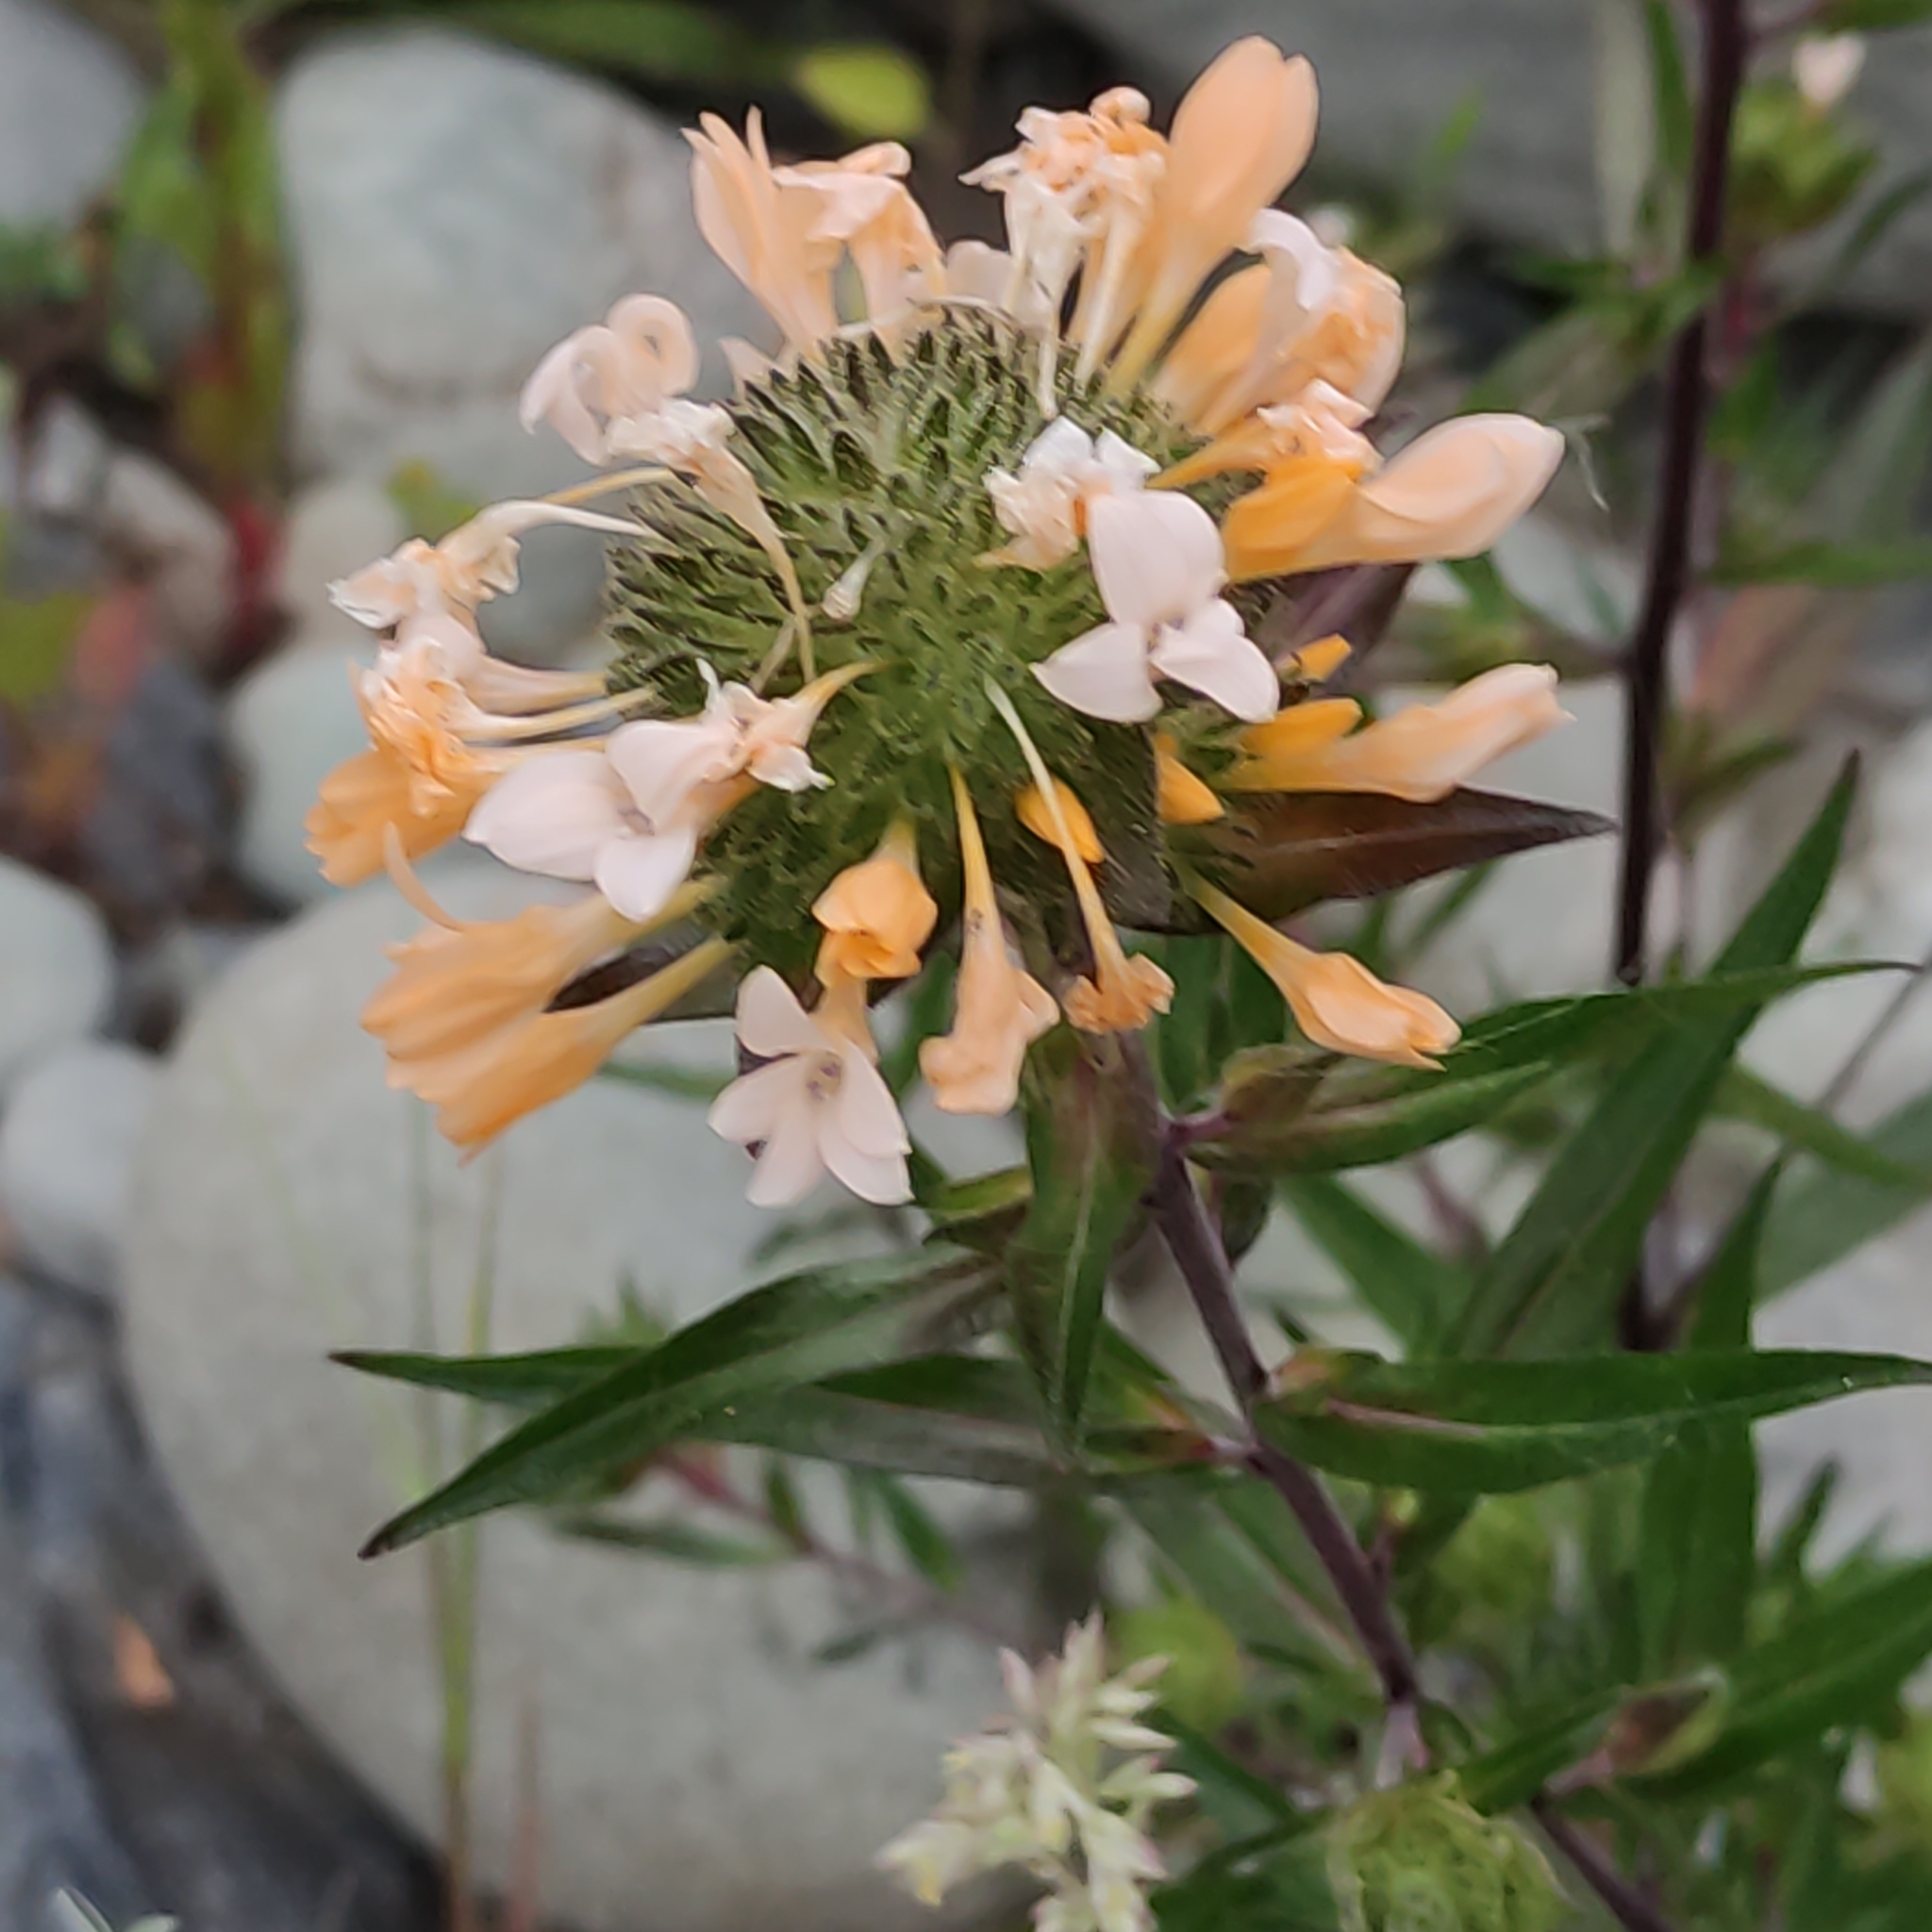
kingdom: Plantae
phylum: Tracheophyta
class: Magnoliopsida
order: Ericales
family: Polemoniaceae
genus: Collomia
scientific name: Collomia grandiflora
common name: California strawflower
